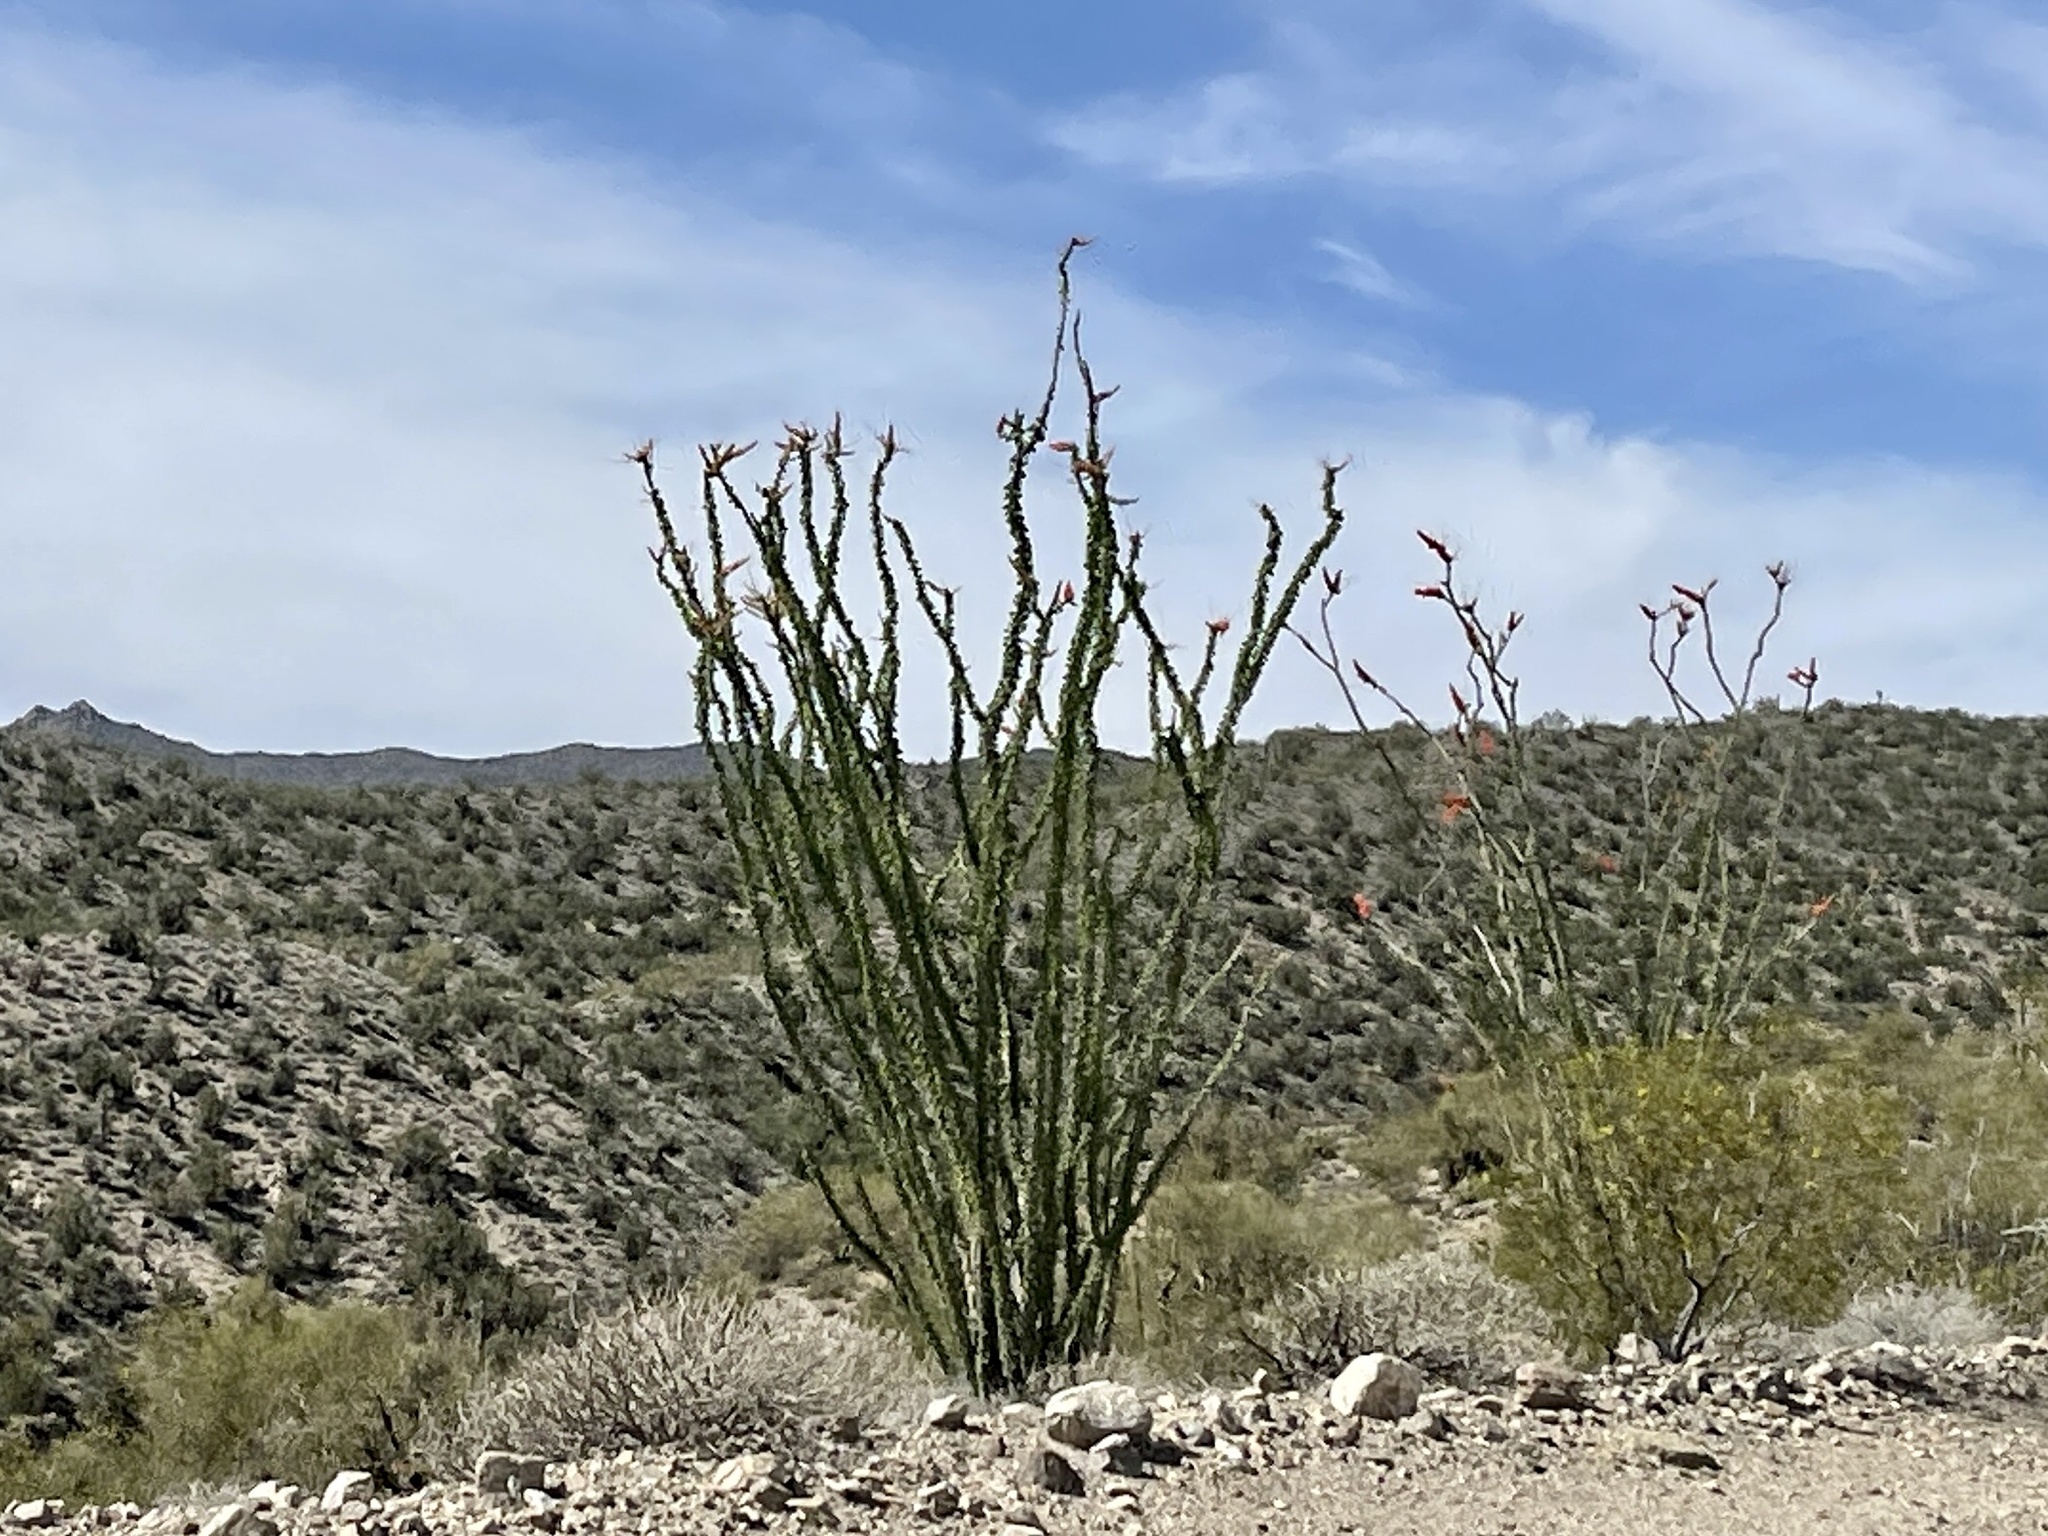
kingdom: Plantae
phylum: Tracheophyta
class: Magnoliopsida
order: Ericales
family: Fouquieriaceae
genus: Fouquieria
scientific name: Fouquieria splendens
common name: Vine-cactus
